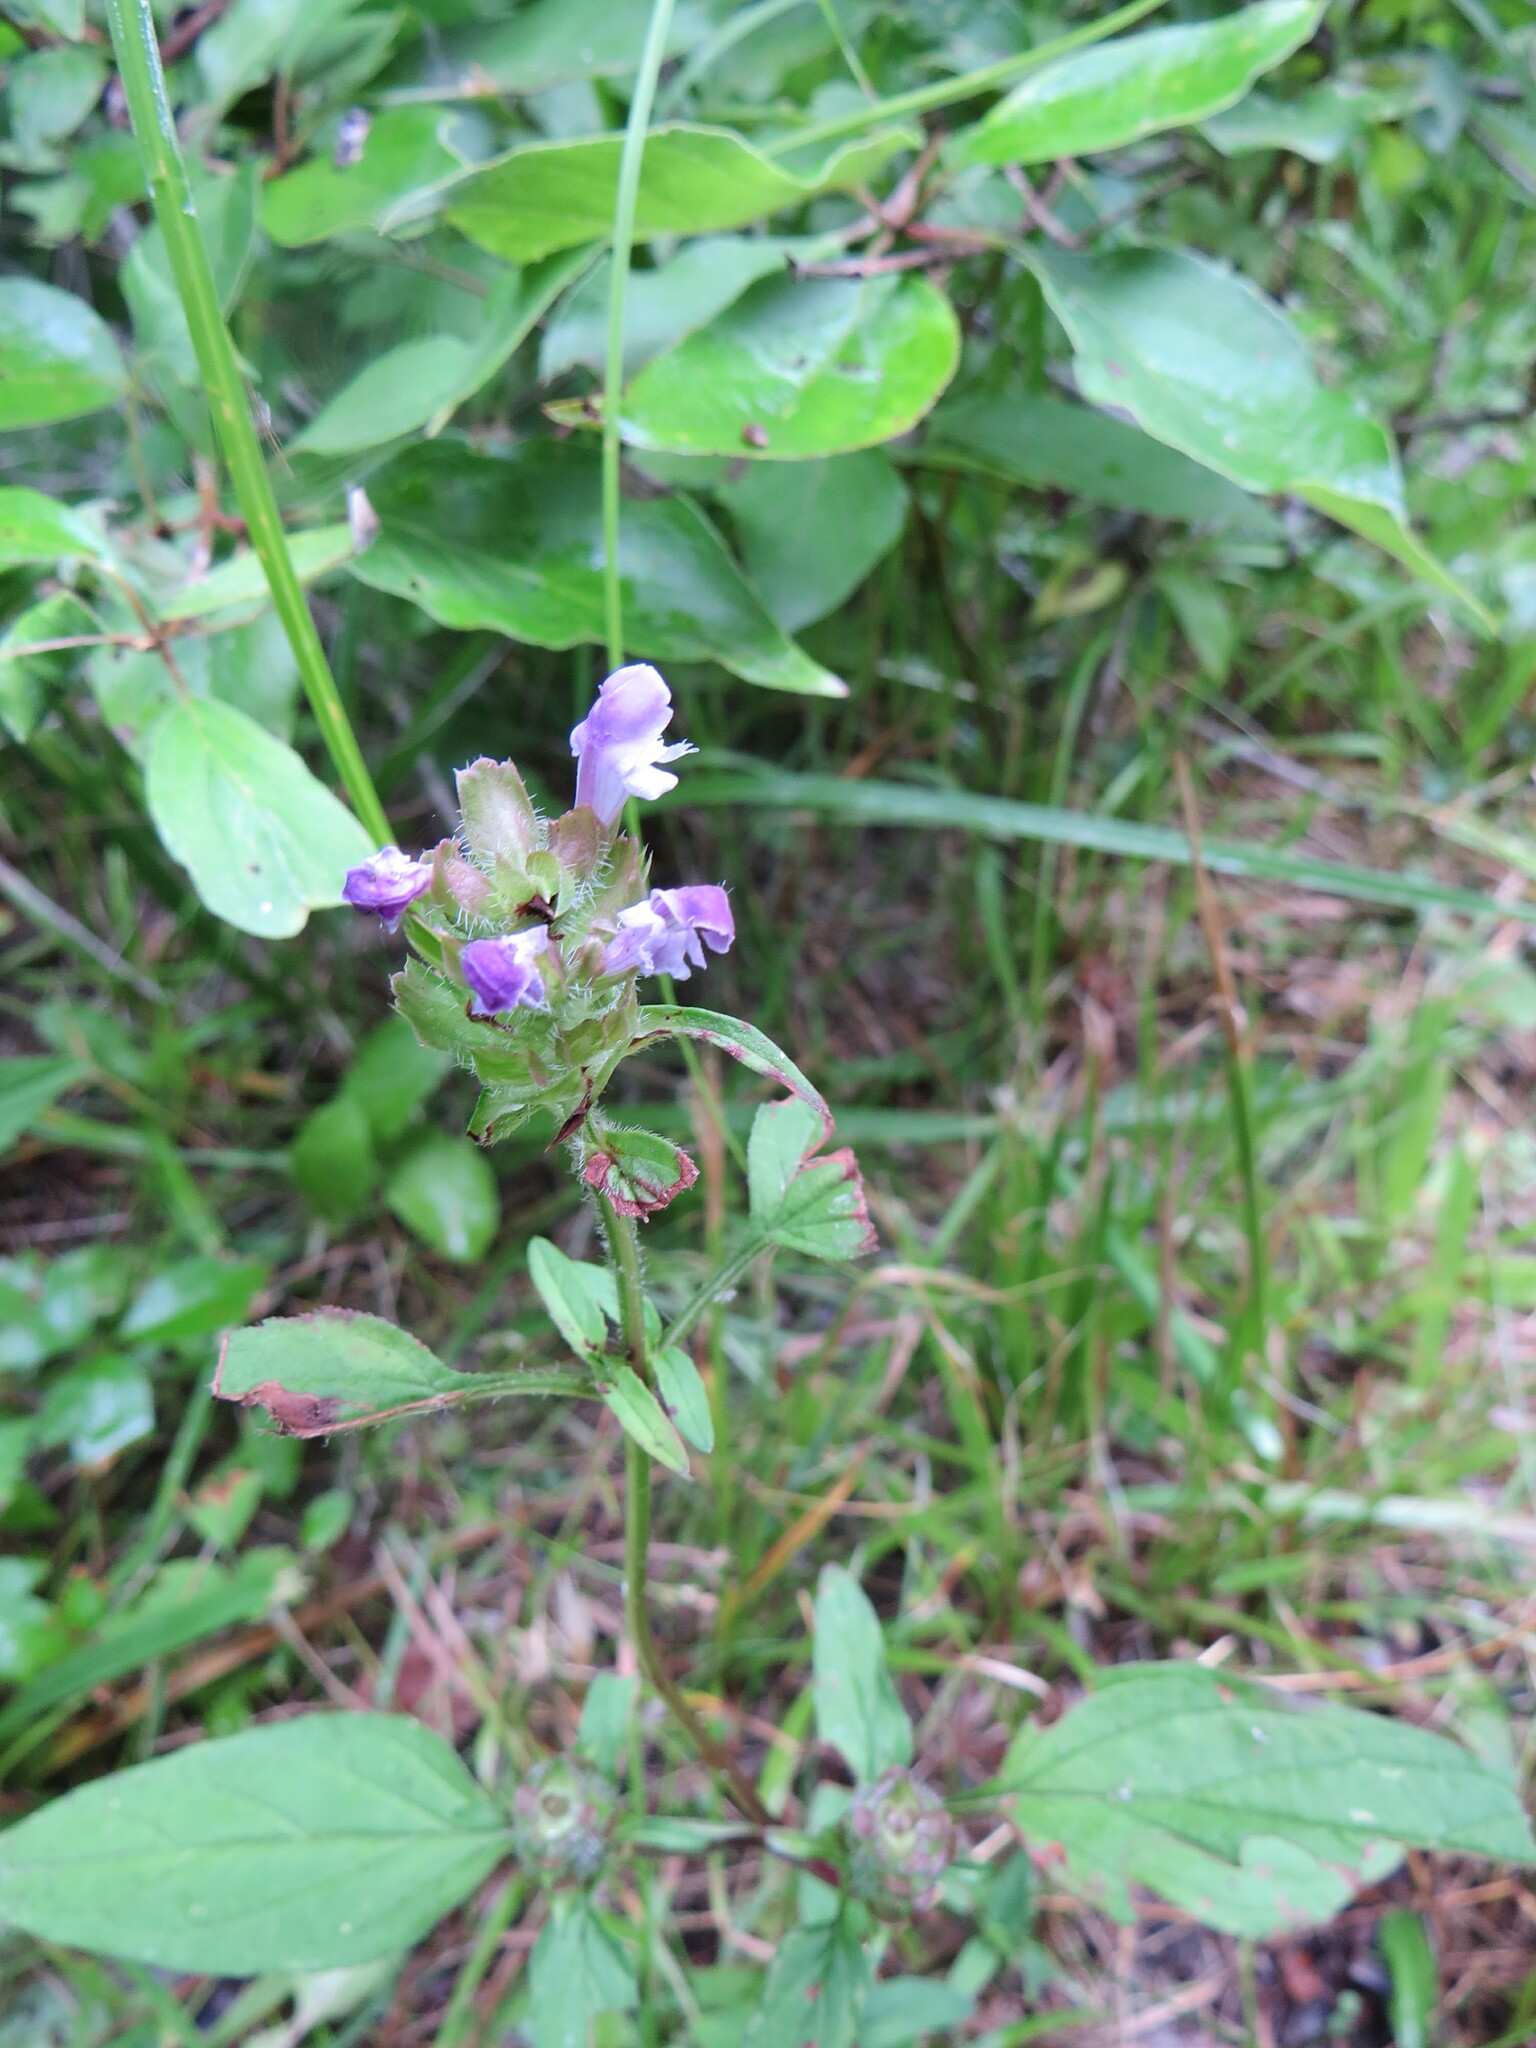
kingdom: Plantae
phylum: Tracheophyta
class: Magnoliopsida
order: Lamiales
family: Lamiaceae
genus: Prunella
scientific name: Prunella vulgaris
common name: Heal-all
